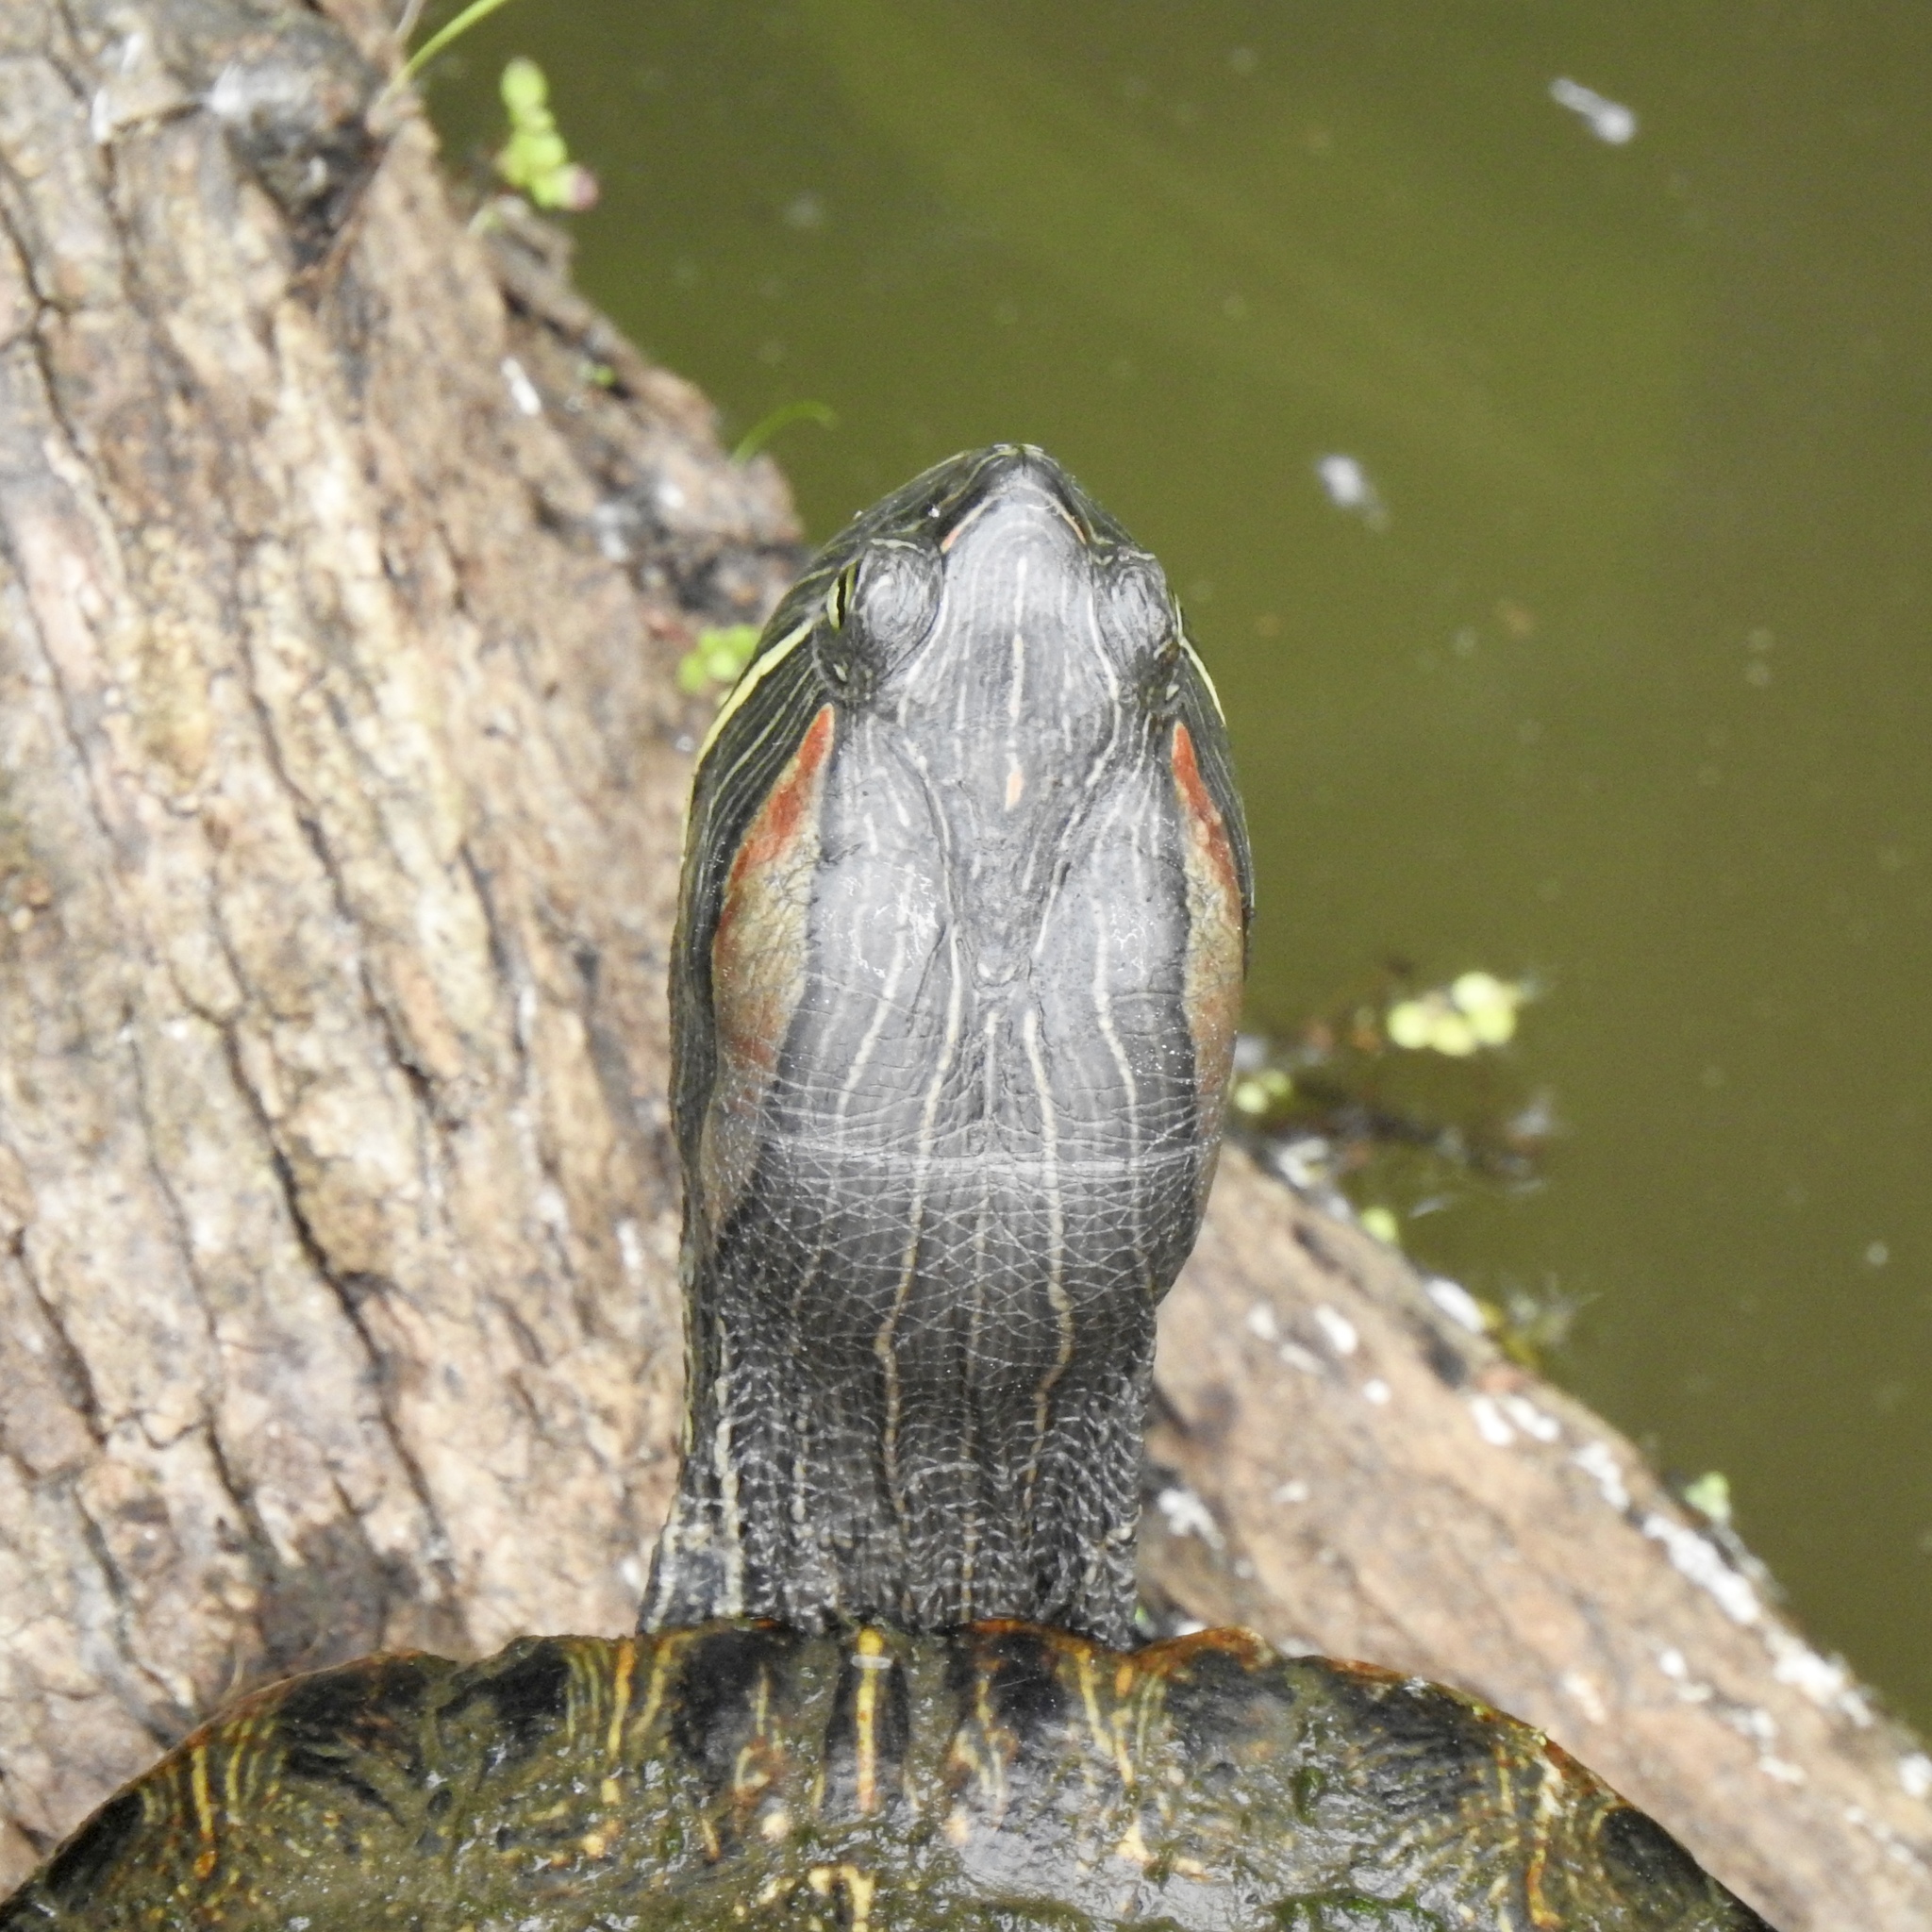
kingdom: Animalia
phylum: Chordata
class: Testudines
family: Emydidae
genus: Trachemys
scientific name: Trachemys scripta
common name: Slider
